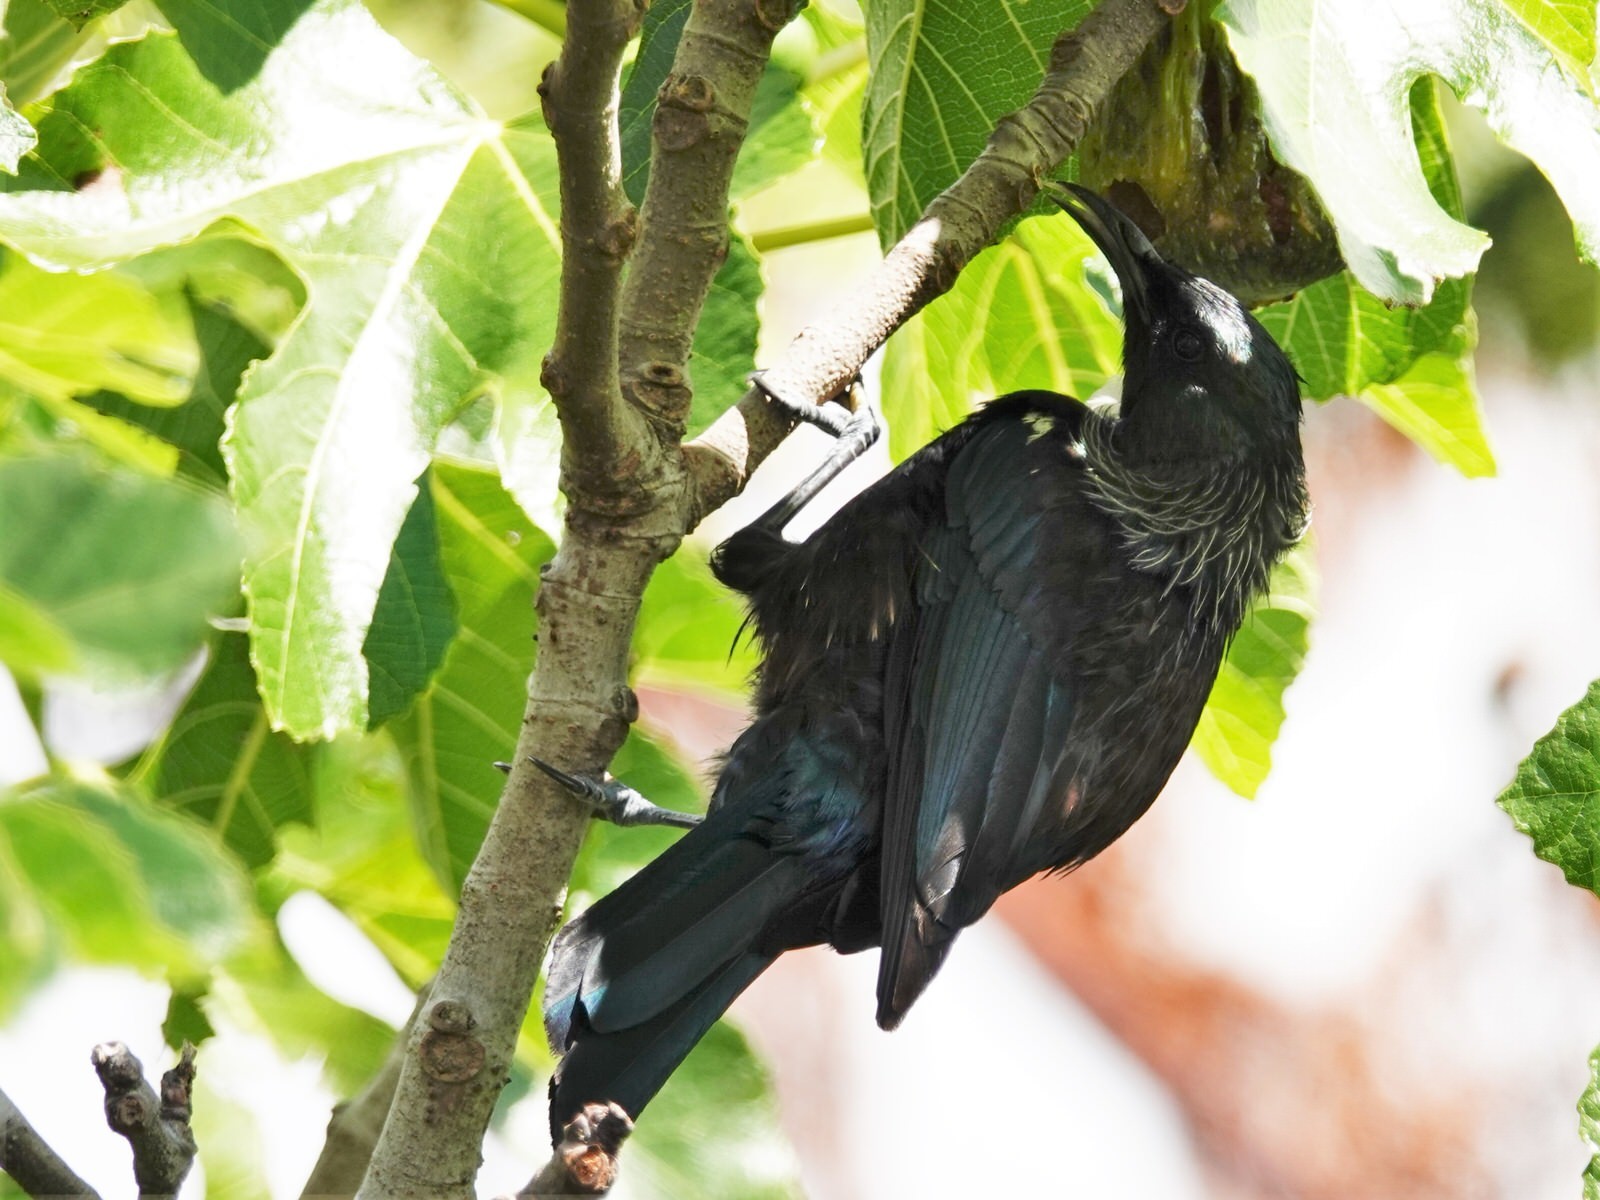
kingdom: Animalia
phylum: Chordata
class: Aves
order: Passeriformes
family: Meliphagidae
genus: Prosthemadera
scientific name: Prosthemadera novaeseelandiae
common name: Tui
